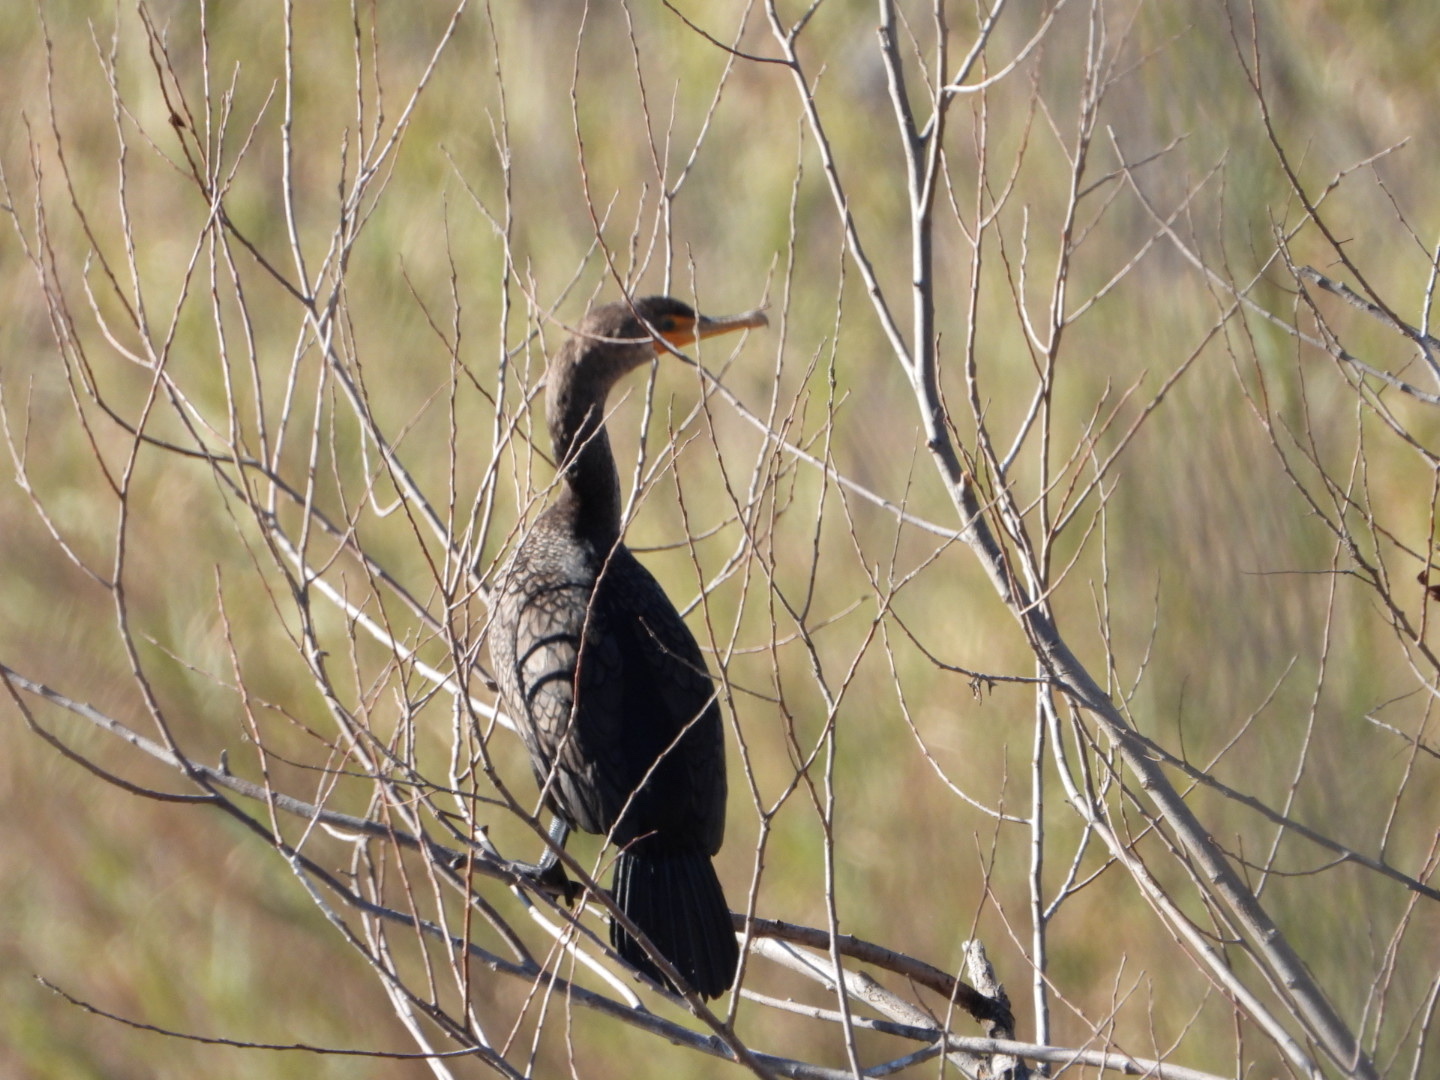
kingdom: Animalia
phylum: Chordata
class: Aves
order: Suliformes
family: Phalacrocoracidae
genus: Phalacrocorax
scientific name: Phalacrocorax auritus
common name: Double-crested cormorant
